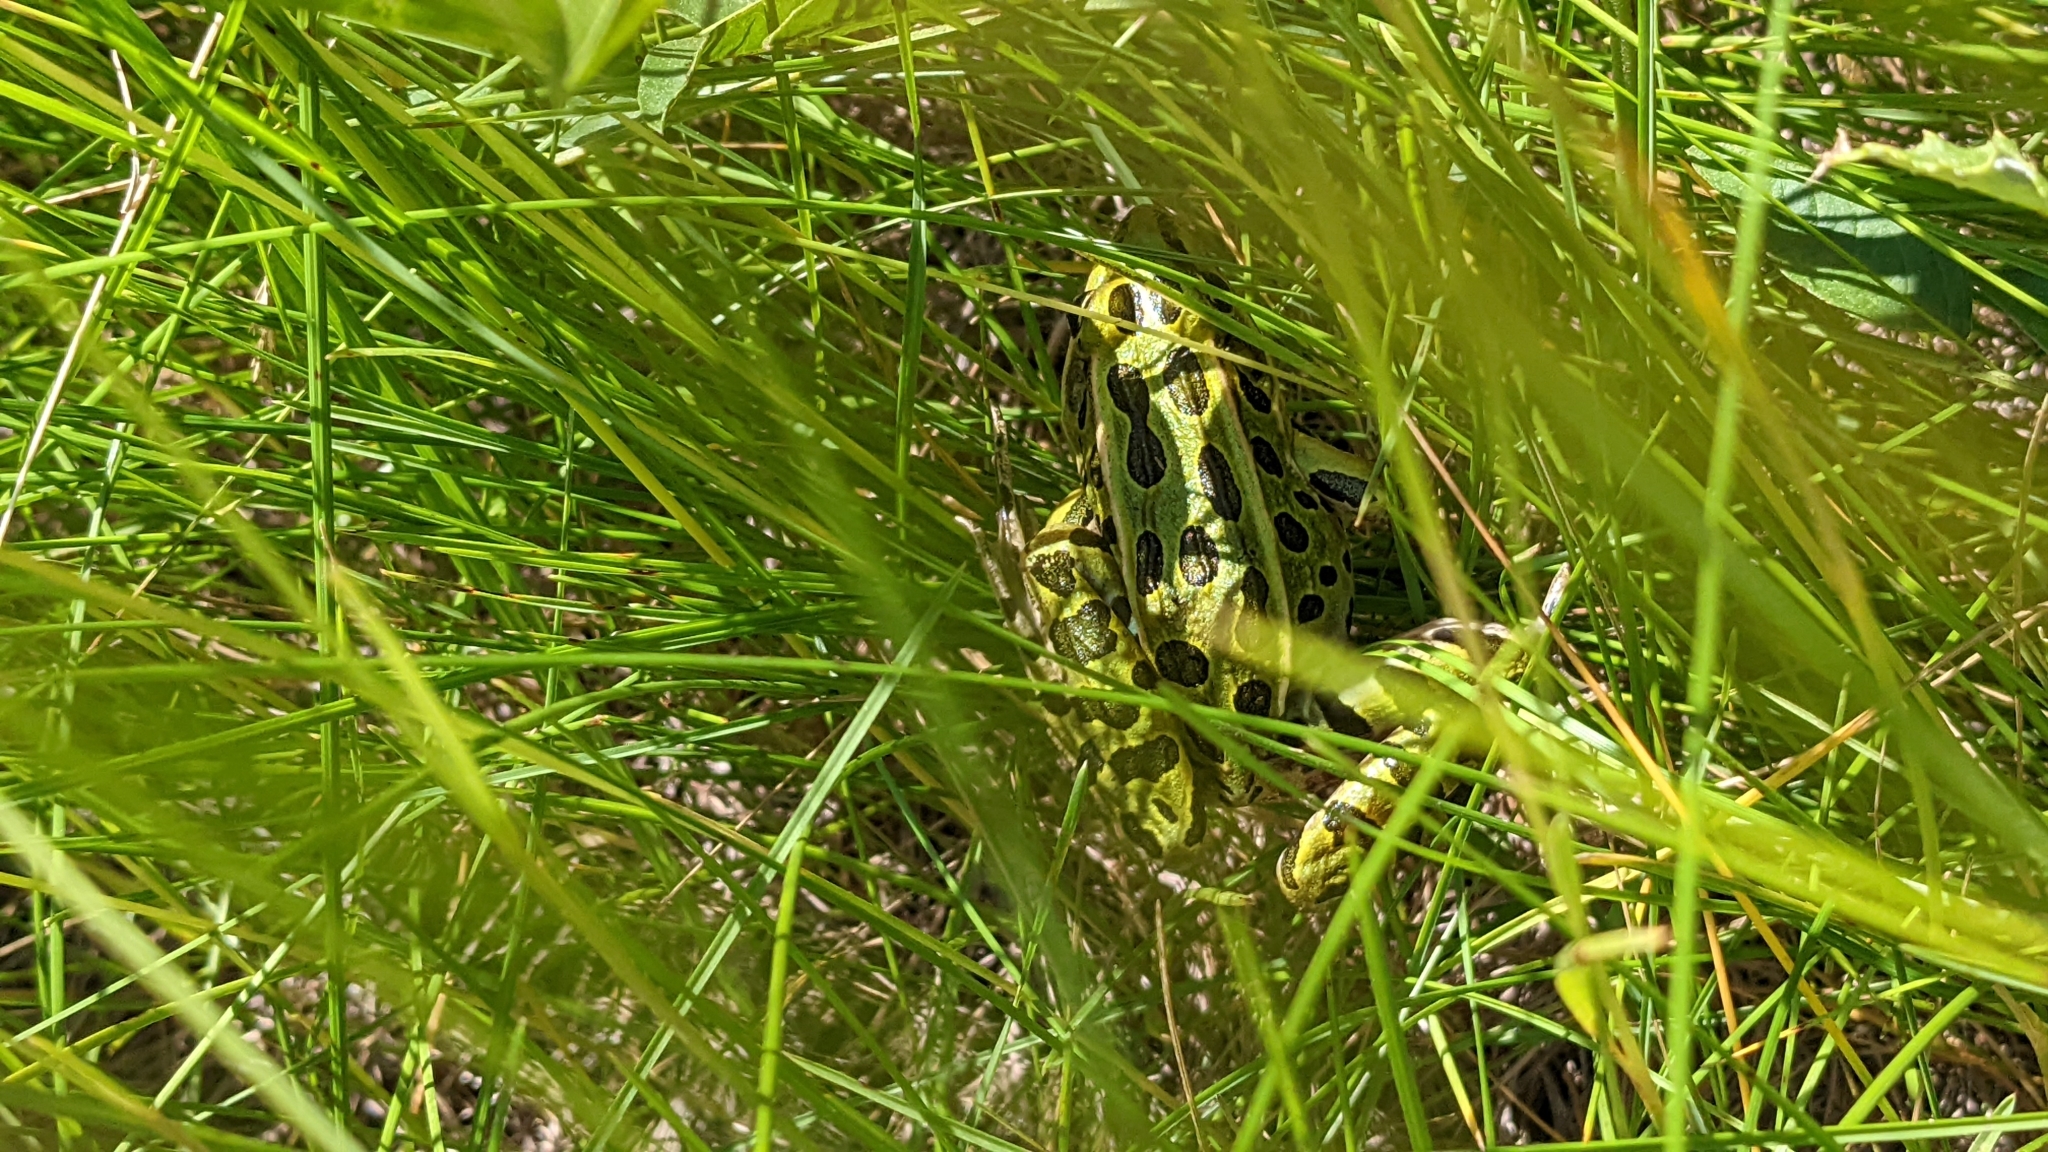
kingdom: Animalia
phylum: Chordata
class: Amphibia
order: Anura
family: Ranidae
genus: Lithobates
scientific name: Lithobates pipiens
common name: Northern leopard frog
